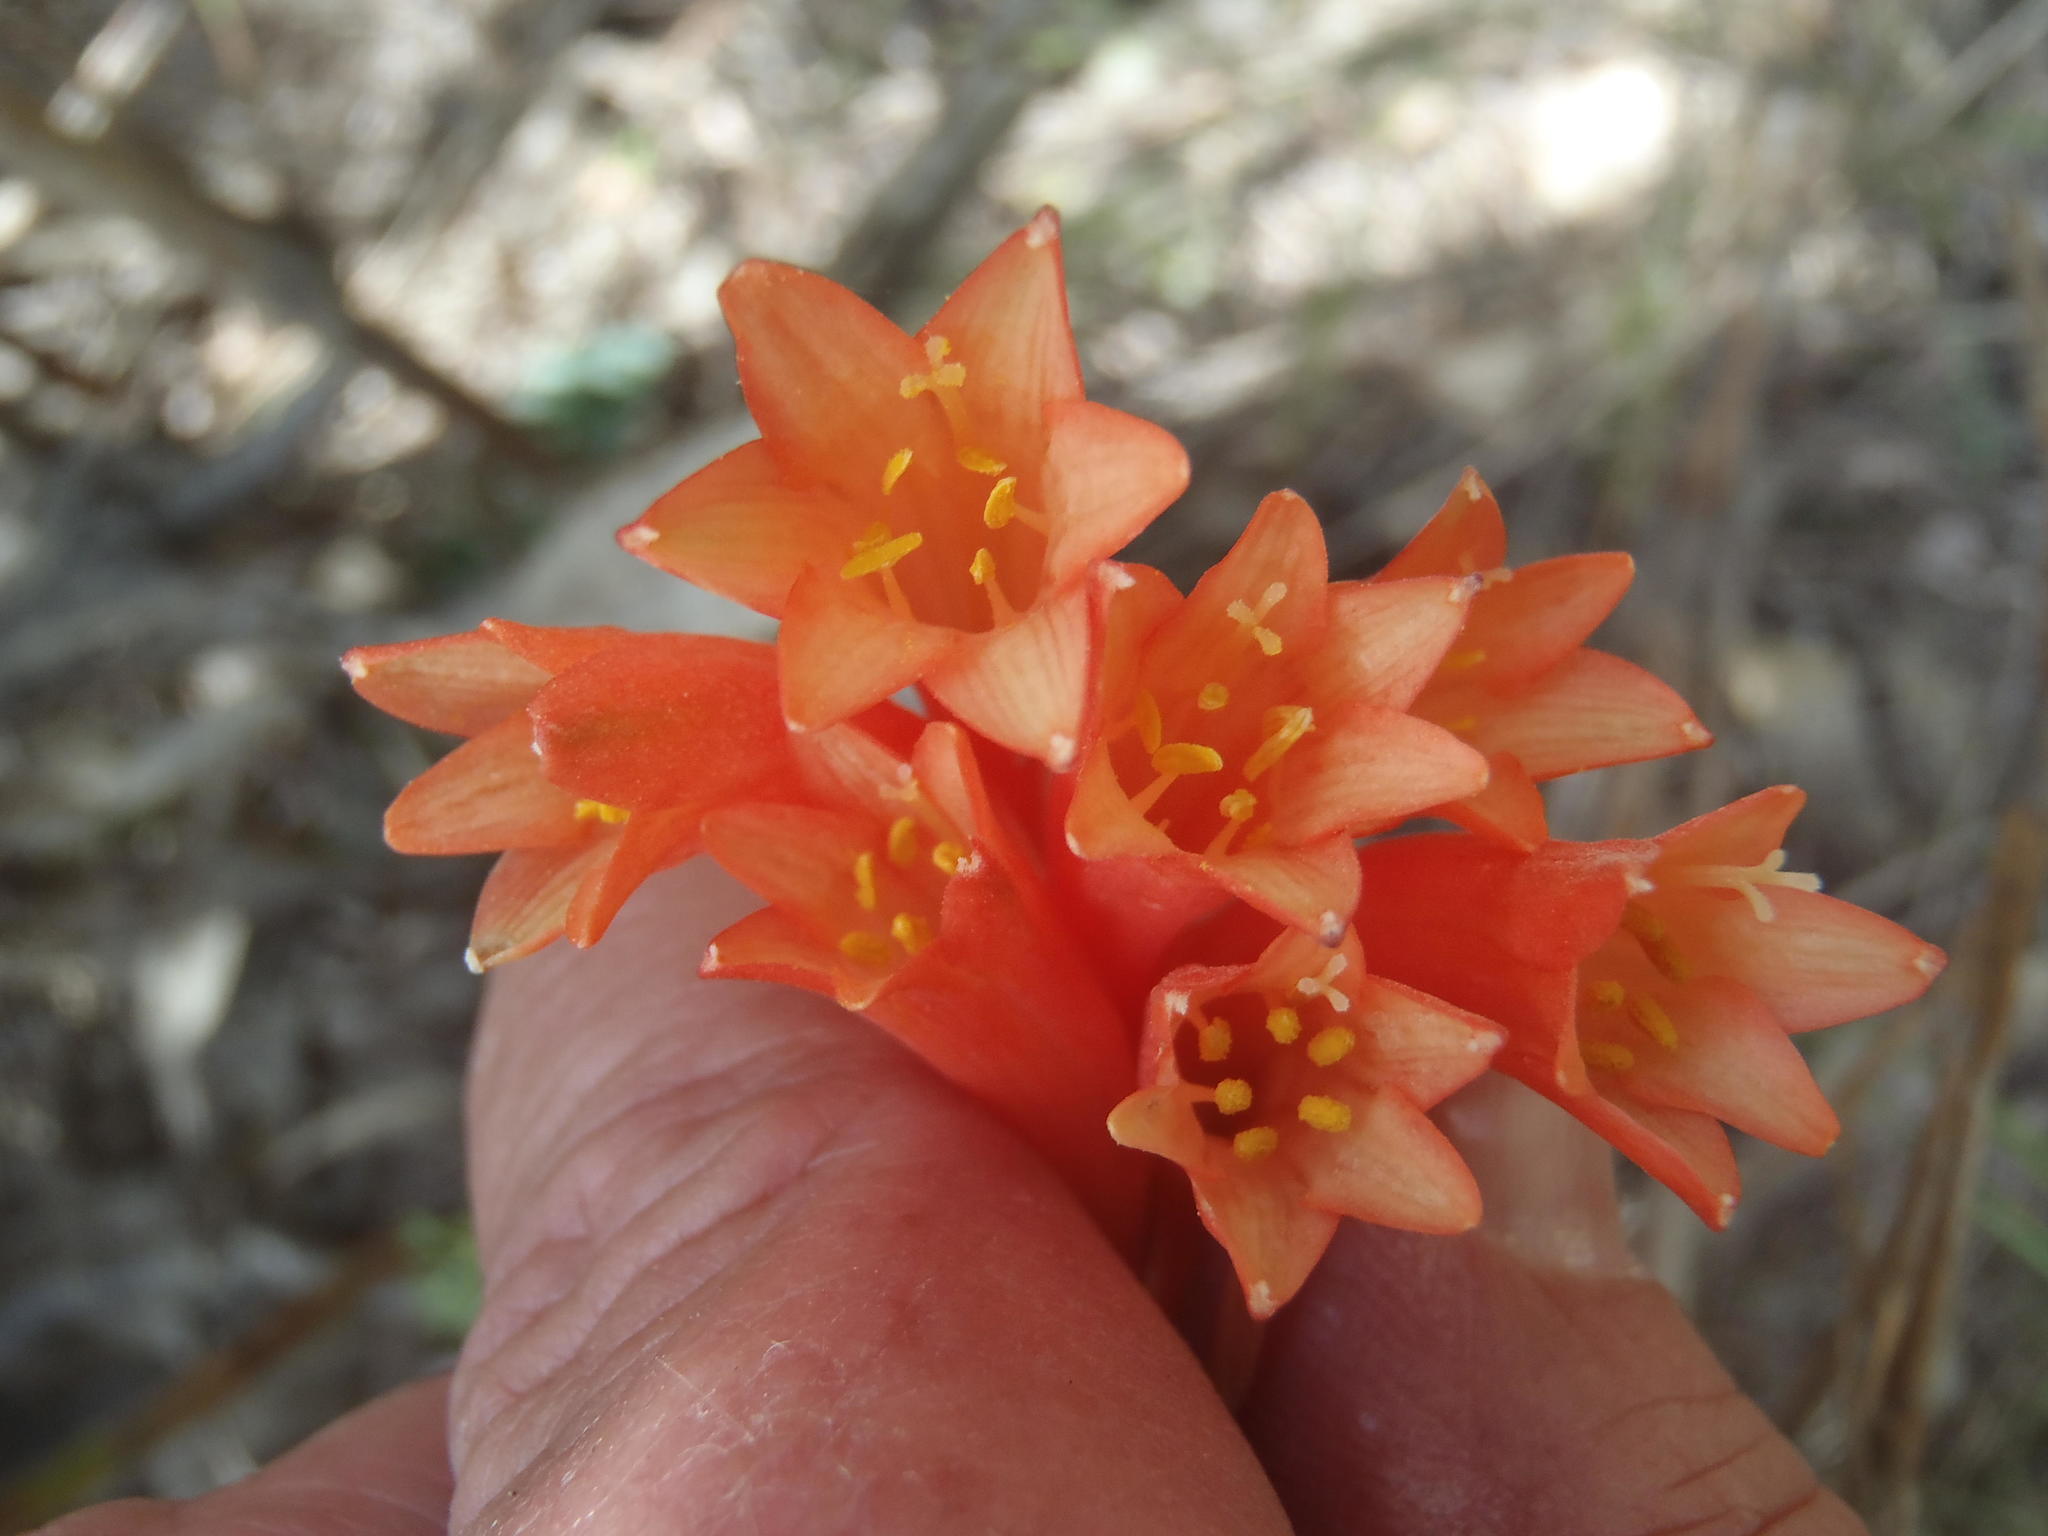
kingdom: Plantae
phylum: Tracheophyta
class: Liliopsida
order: Asparagales
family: Amaryllidaceae
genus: Cyrtanthus
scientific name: Cyrtanthus angustifolius
